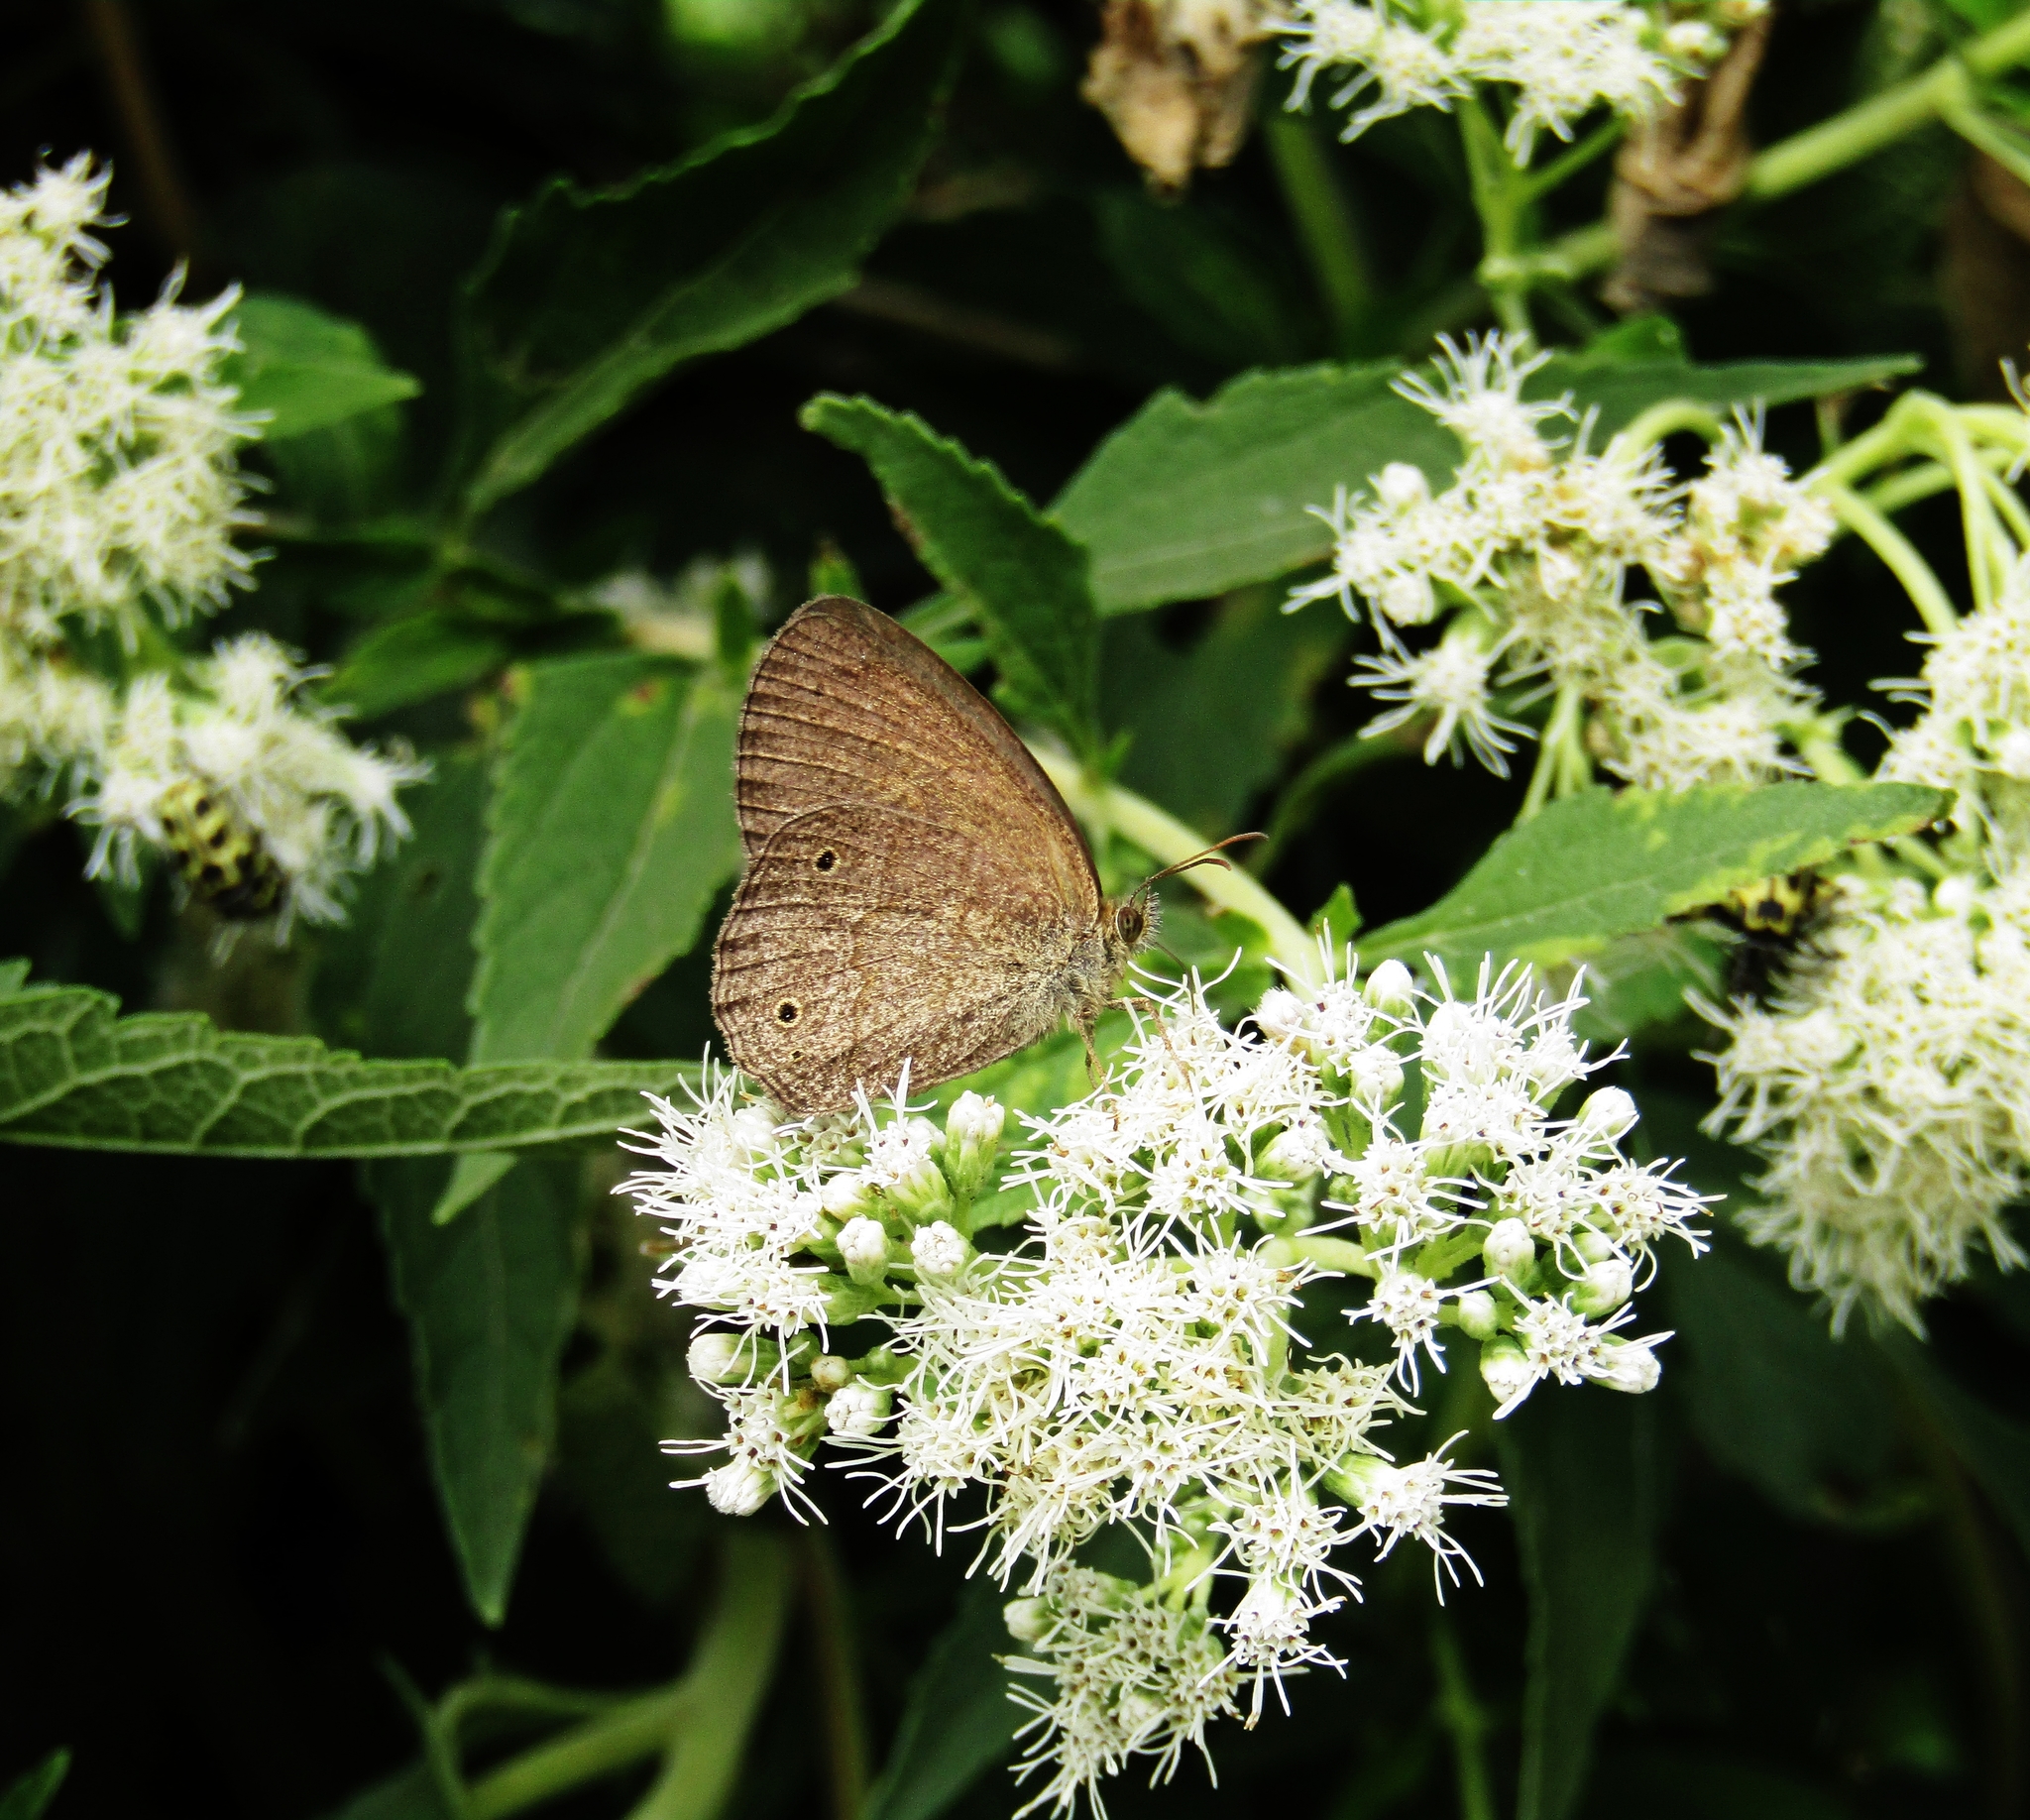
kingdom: Animalia
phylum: Arthropoda
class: Insecta
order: Lepidoptera
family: Nymphalidae
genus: Yphthimoides
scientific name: Yphthimoides celmis
